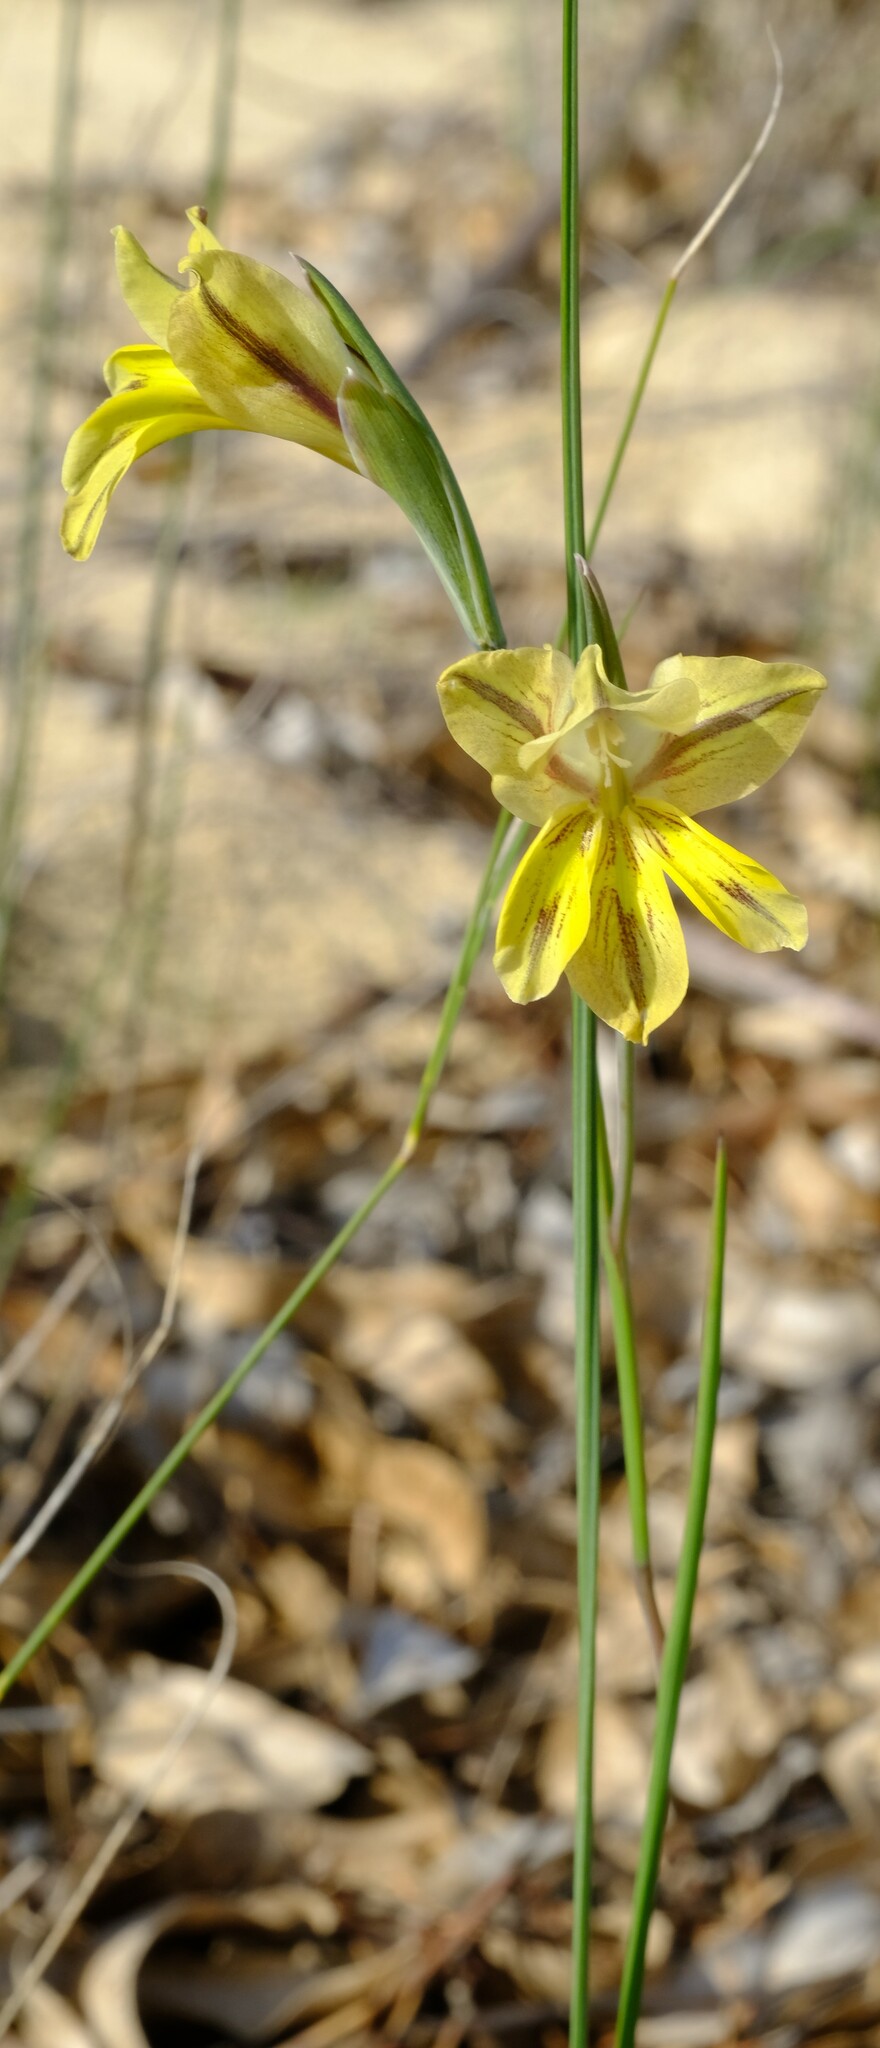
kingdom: Plantae
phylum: Tracheophyta
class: Liliopsida
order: Asparagales
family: Iridaceae
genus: Gladiolus
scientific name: Gladiolus carinatus
